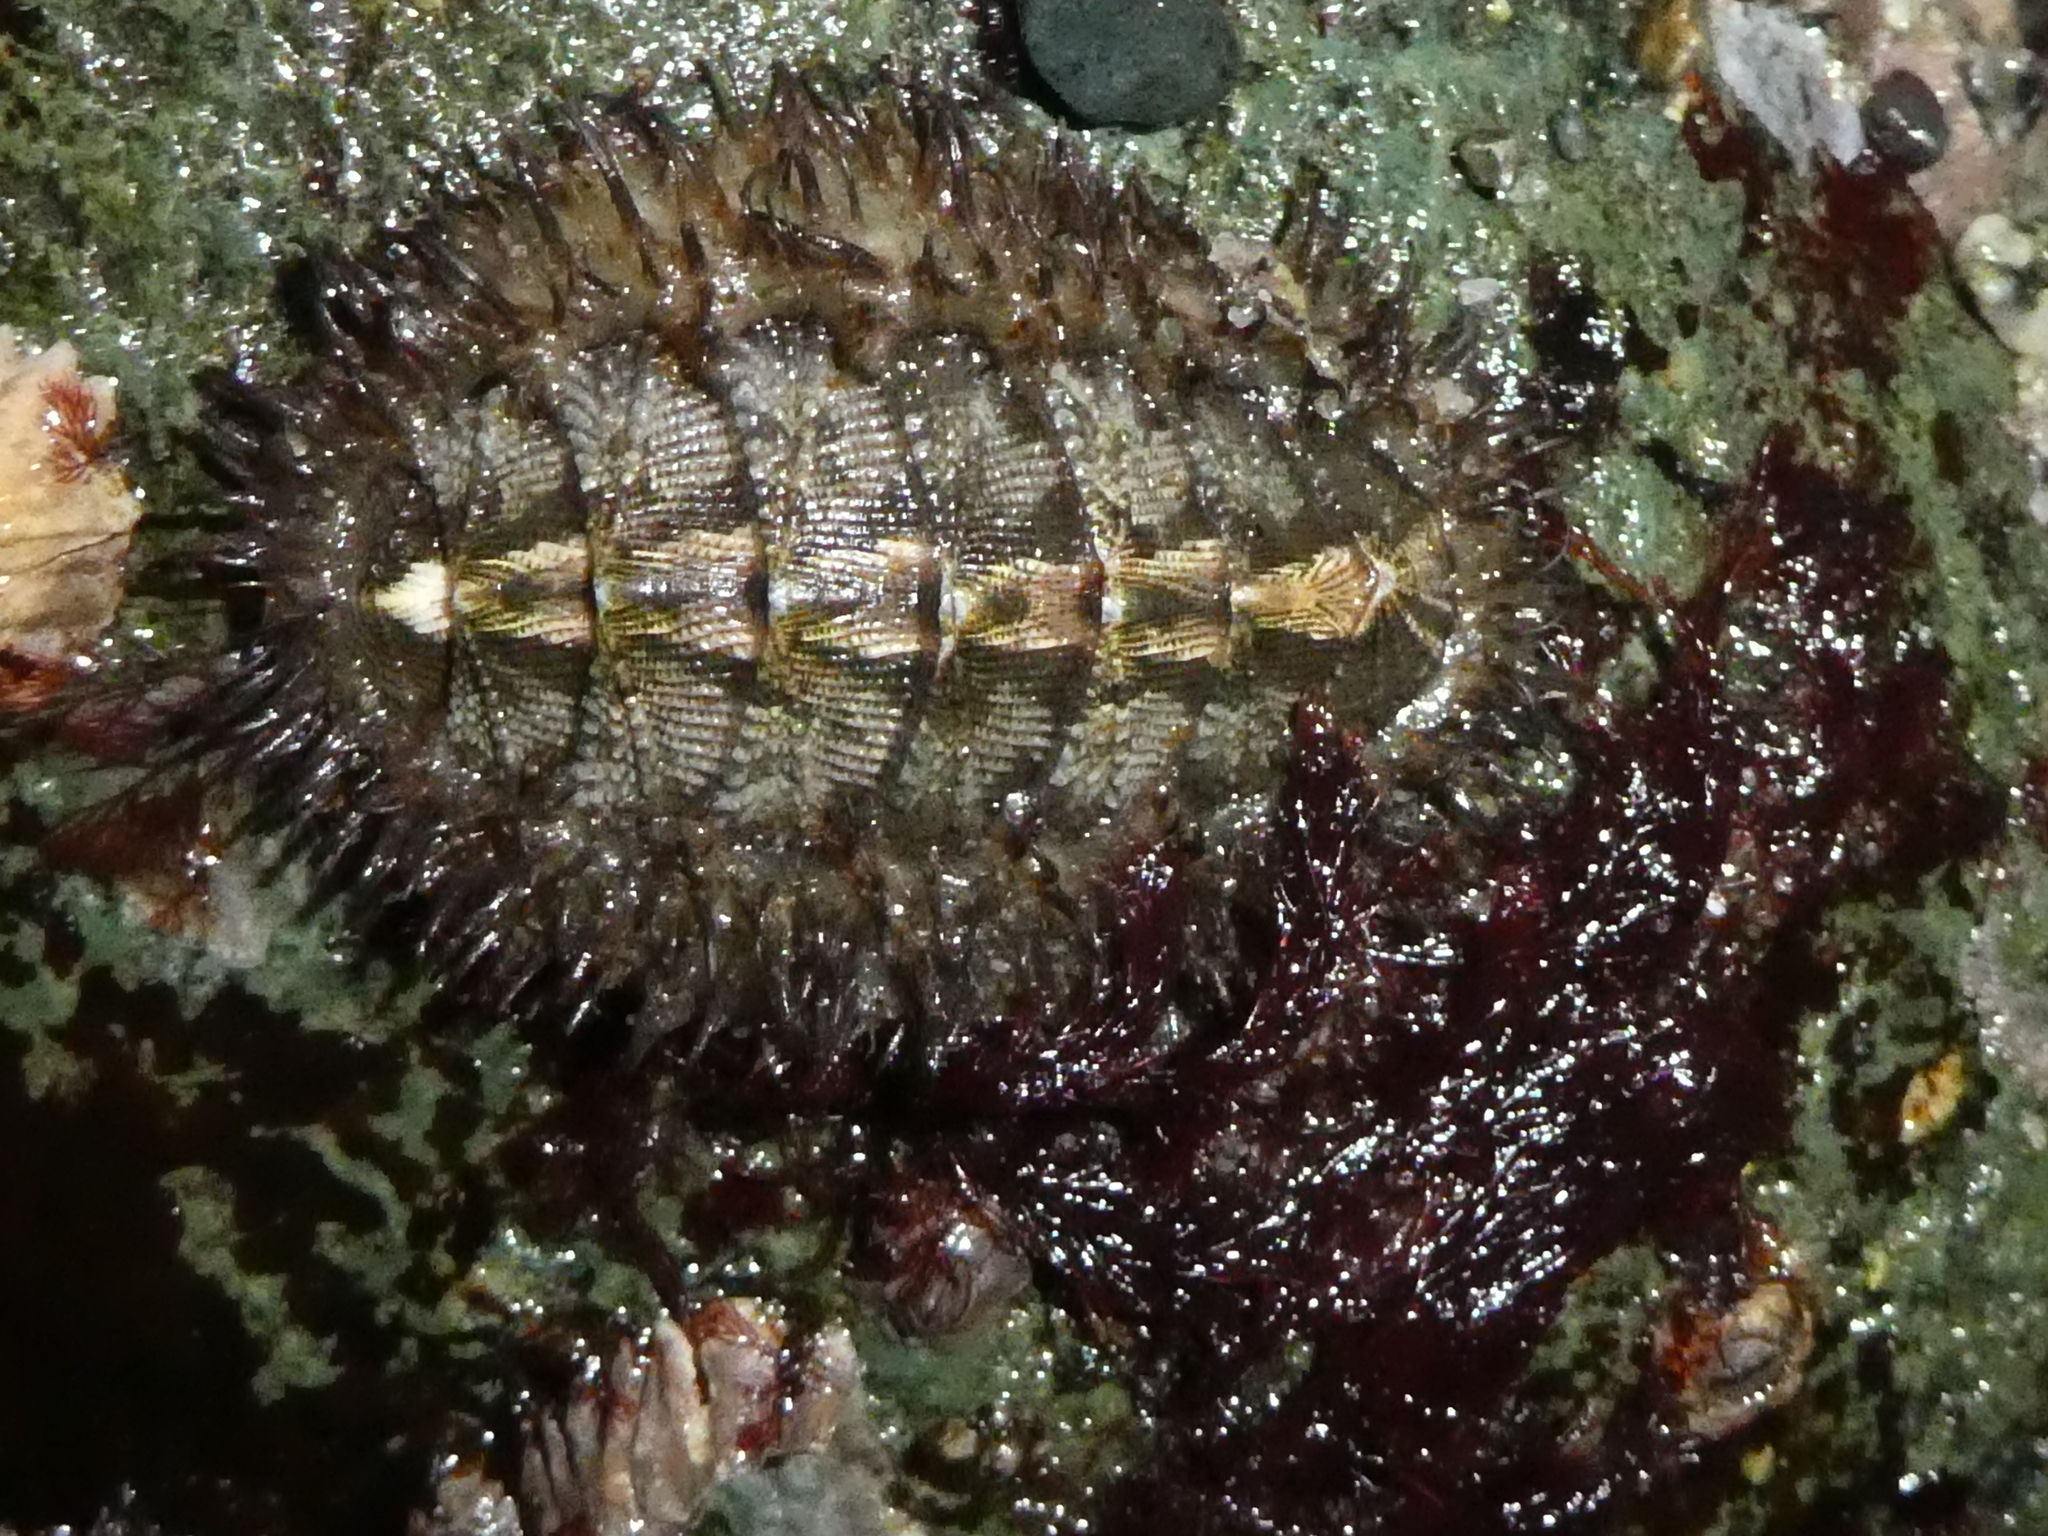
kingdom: Animalia
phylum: Mollusca
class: Polyplacophora
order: Chitonida
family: Mopaliidae
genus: Mopalia
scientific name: Mopalia muscosa
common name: Mossy chiton
